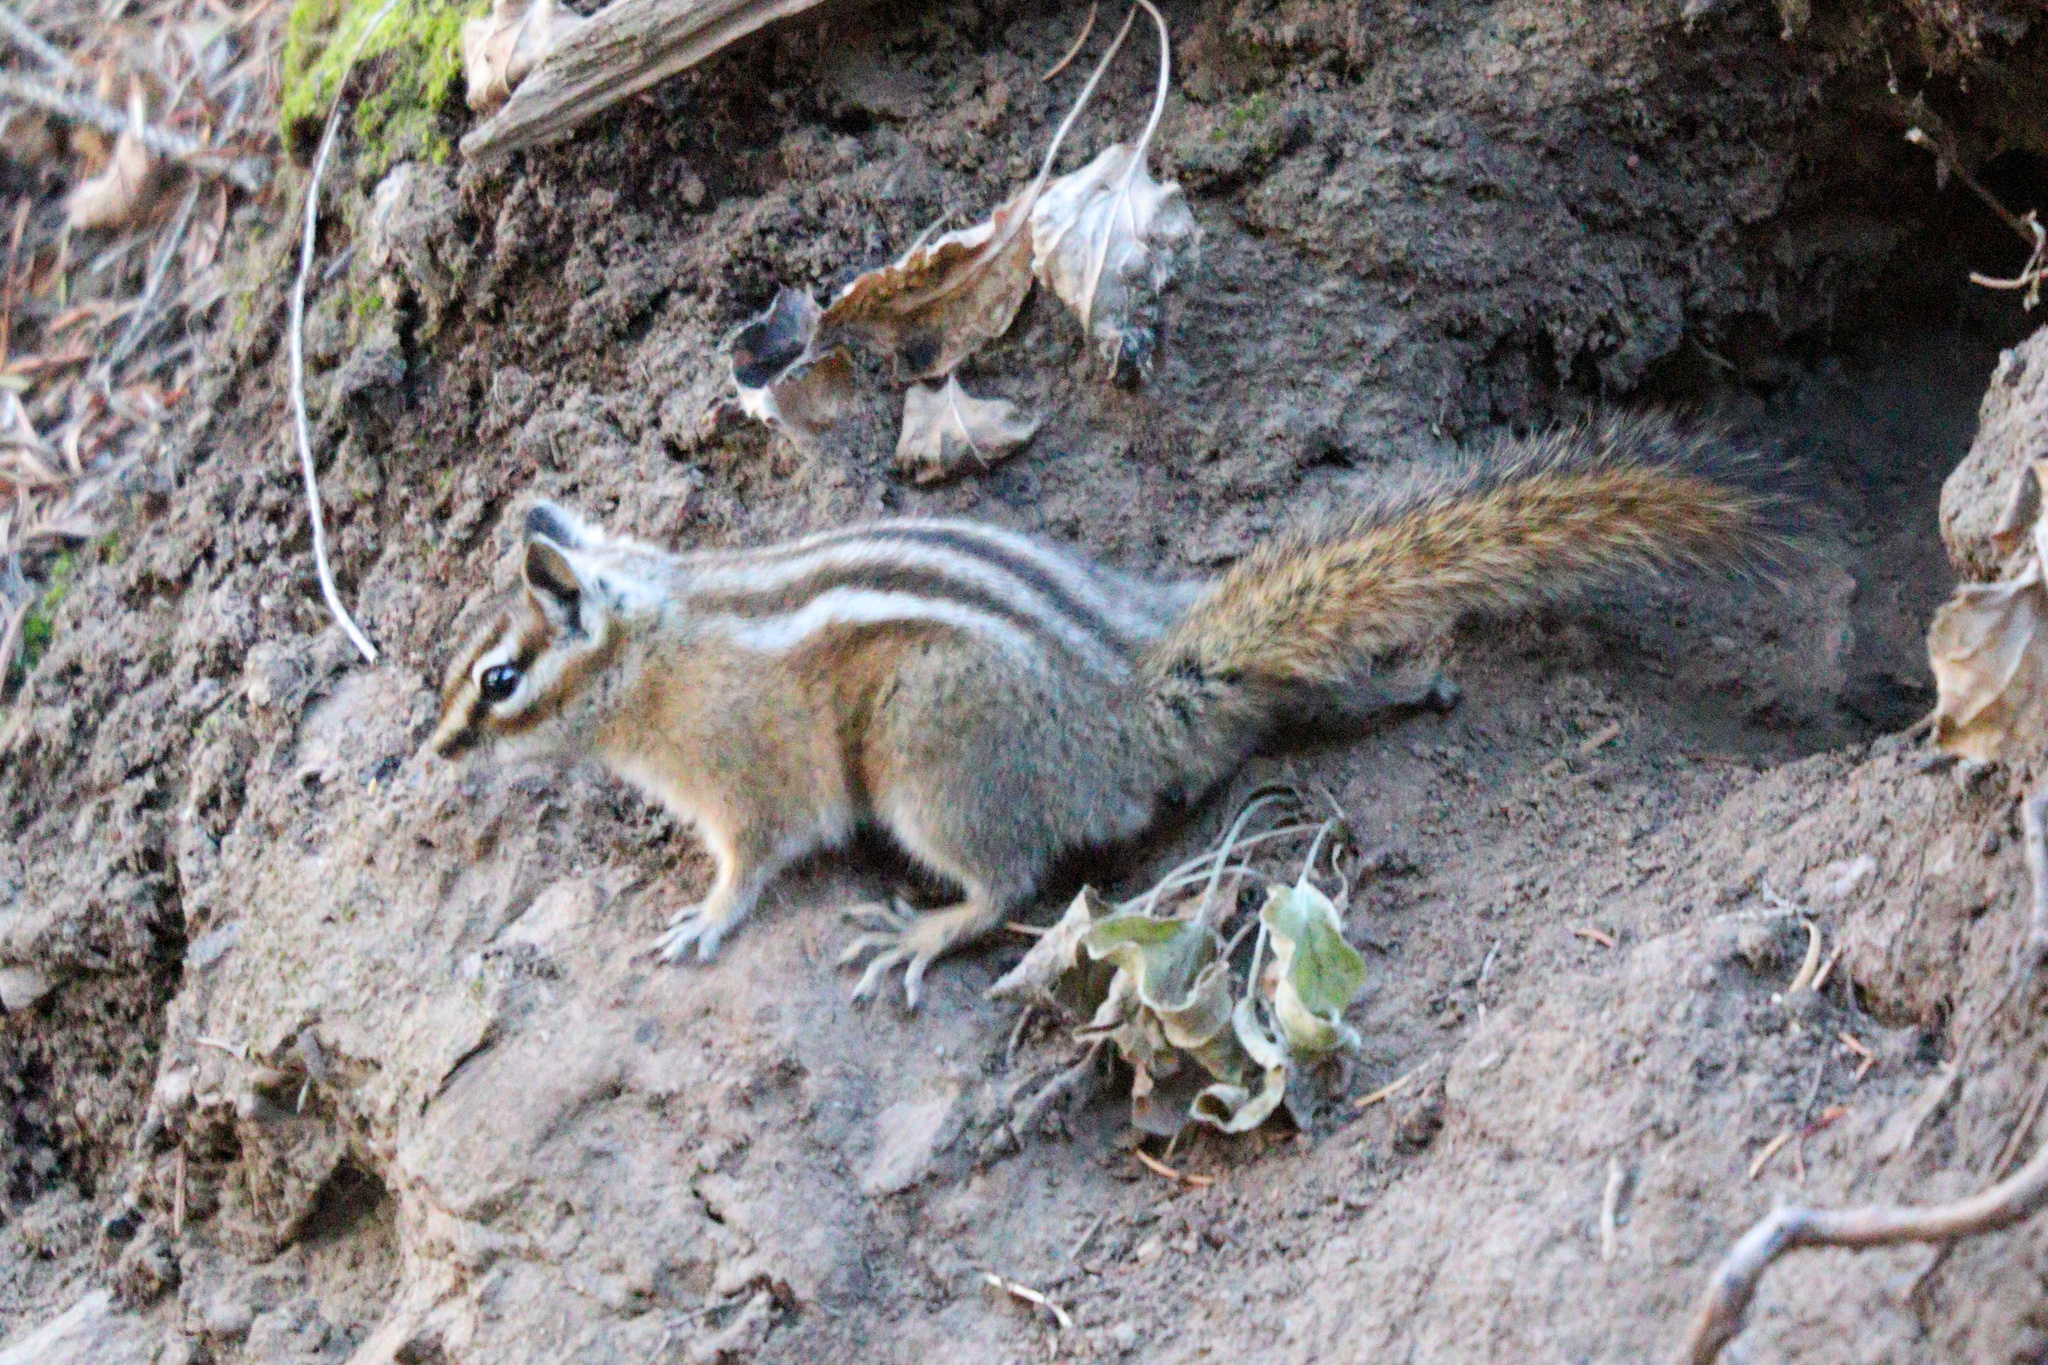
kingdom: Animalia
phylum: Chordata
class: Mammalia
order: Rodentia
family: Sciuridae
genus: Tamias
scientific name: Tamias minimus
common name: Least chipmunk
